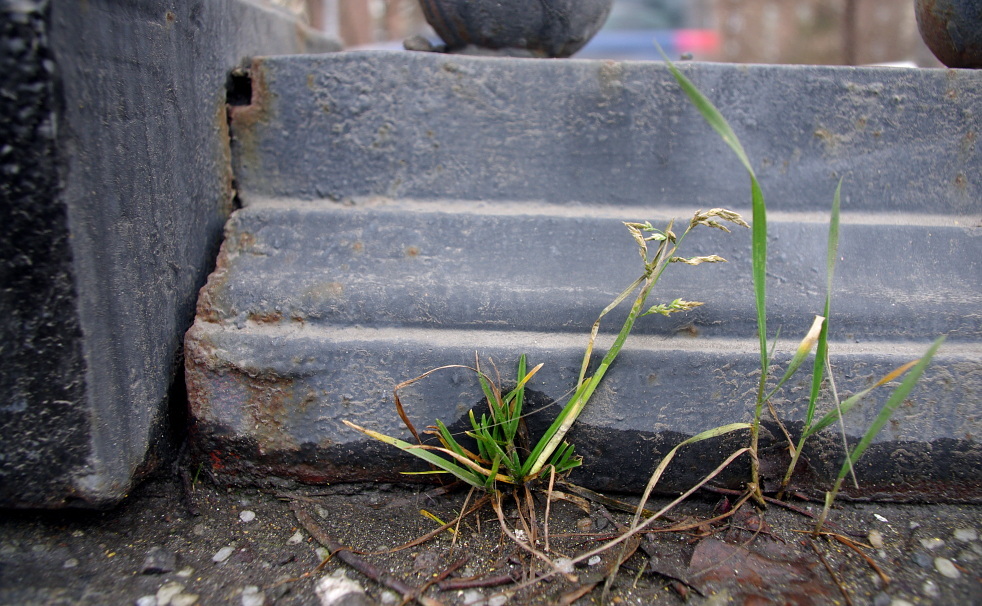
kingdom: Plantae
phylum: Tracheophyta
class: Liliopsida
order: Poales
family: Poaceae
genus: Poa
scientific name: Poa annua
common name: Annual bluegrass
